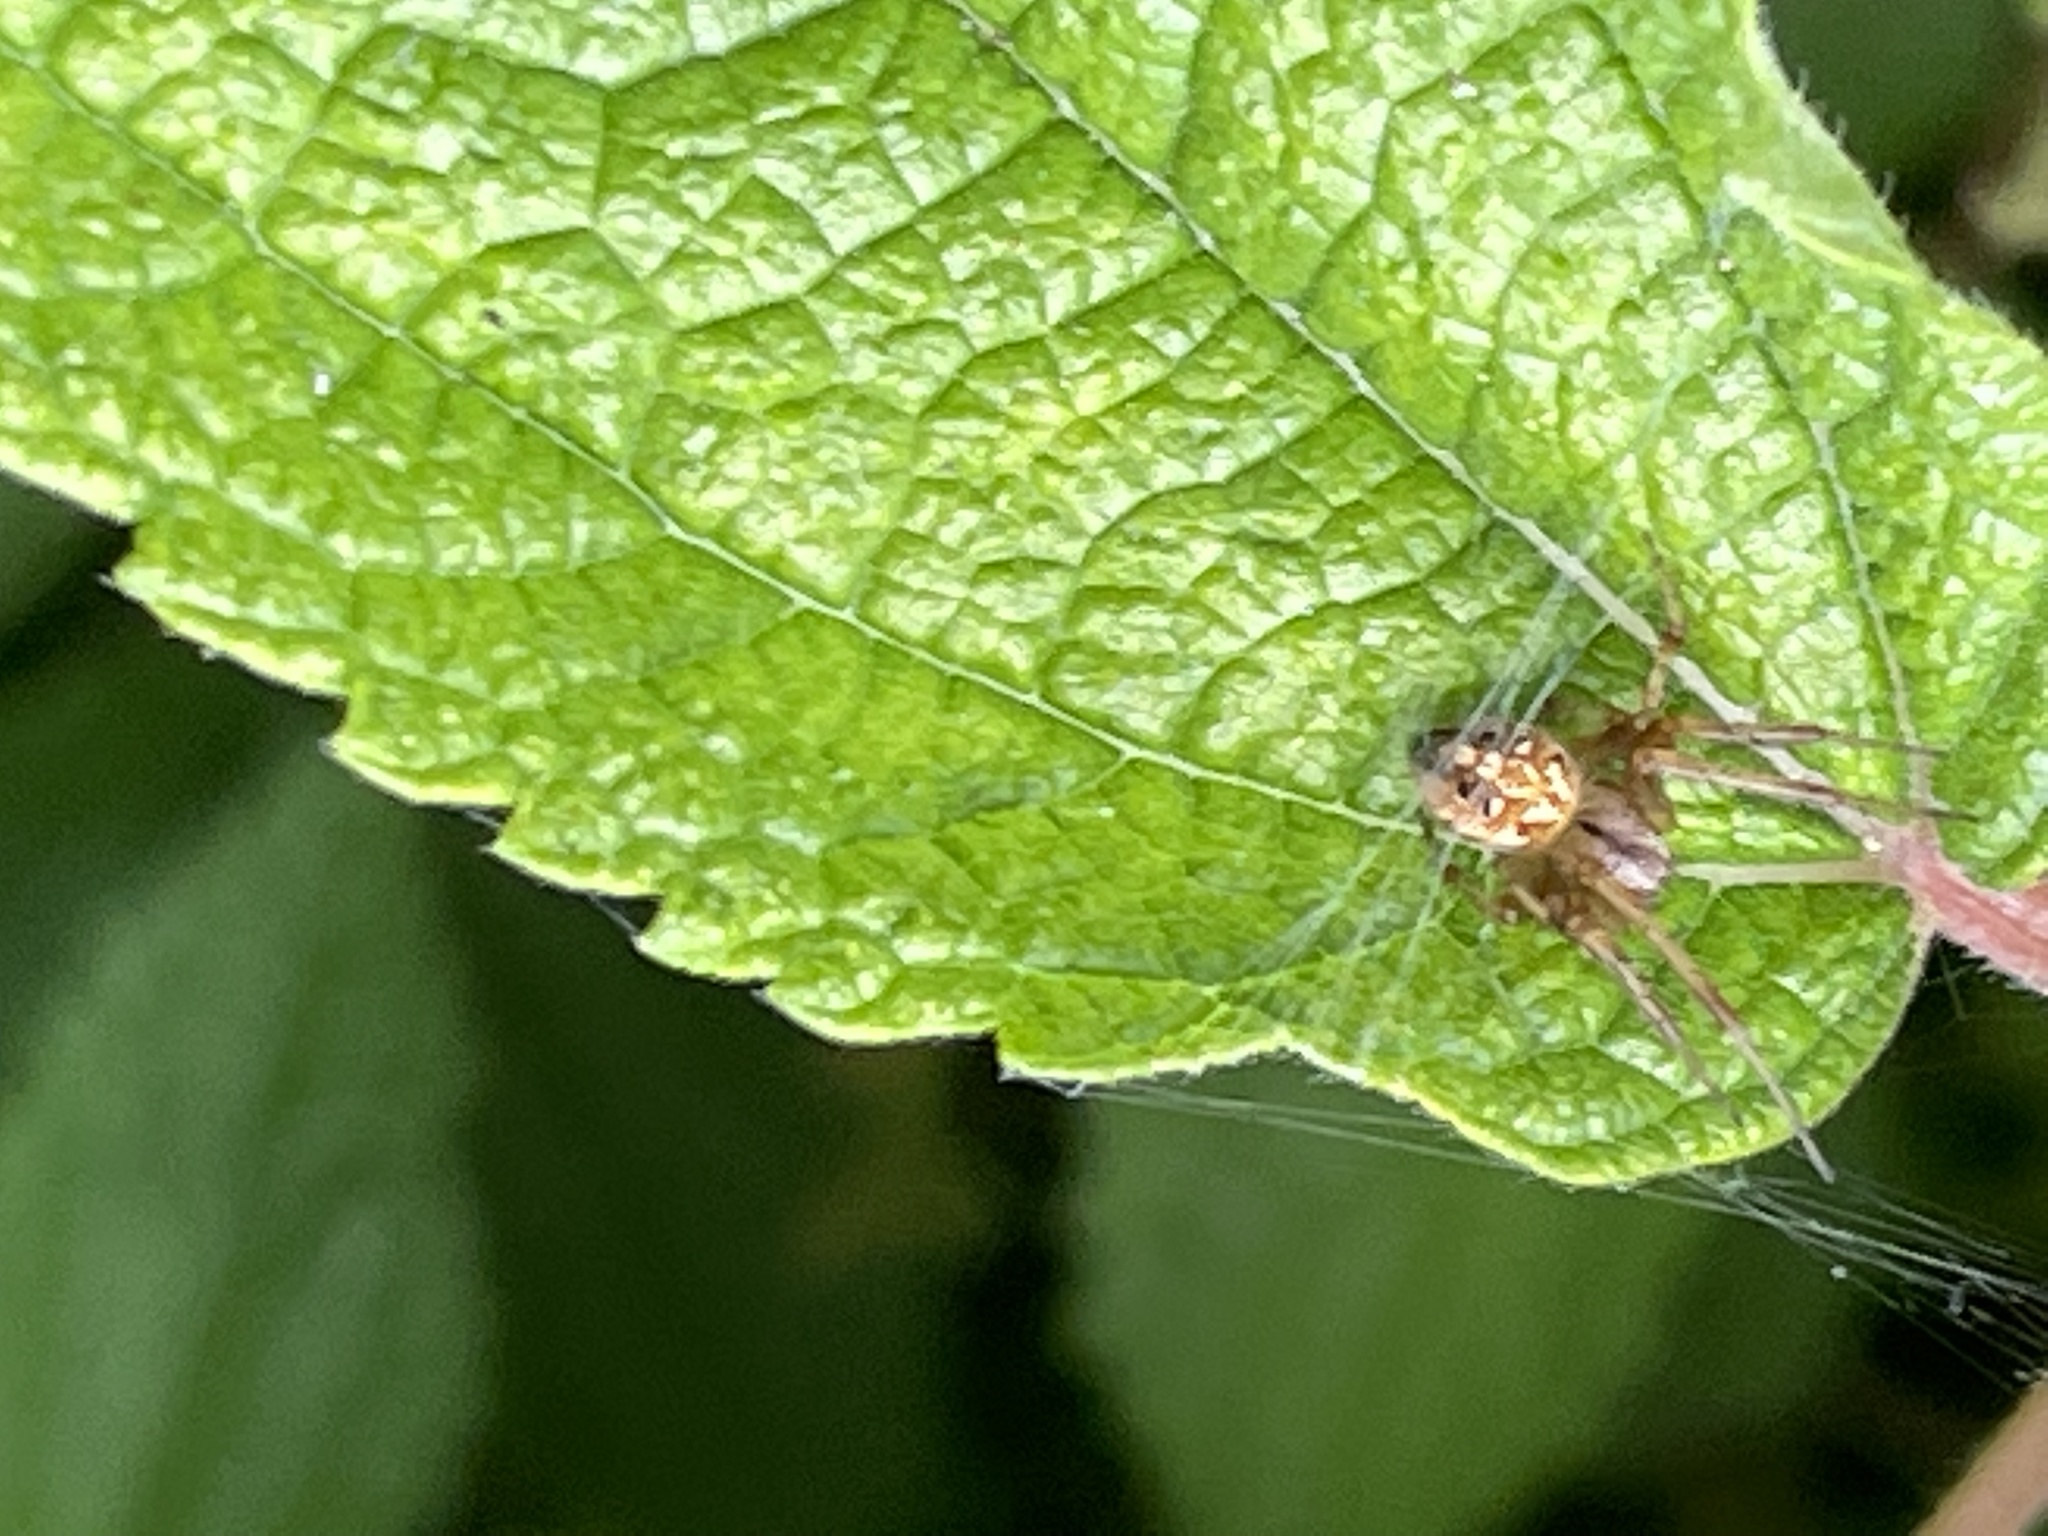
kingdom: Animalia
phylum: Arthropoda
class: Arachnida
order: Araneae
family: Araneidae
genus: Neoscona
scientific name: Neoscona arabesca
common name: Orb weavers
